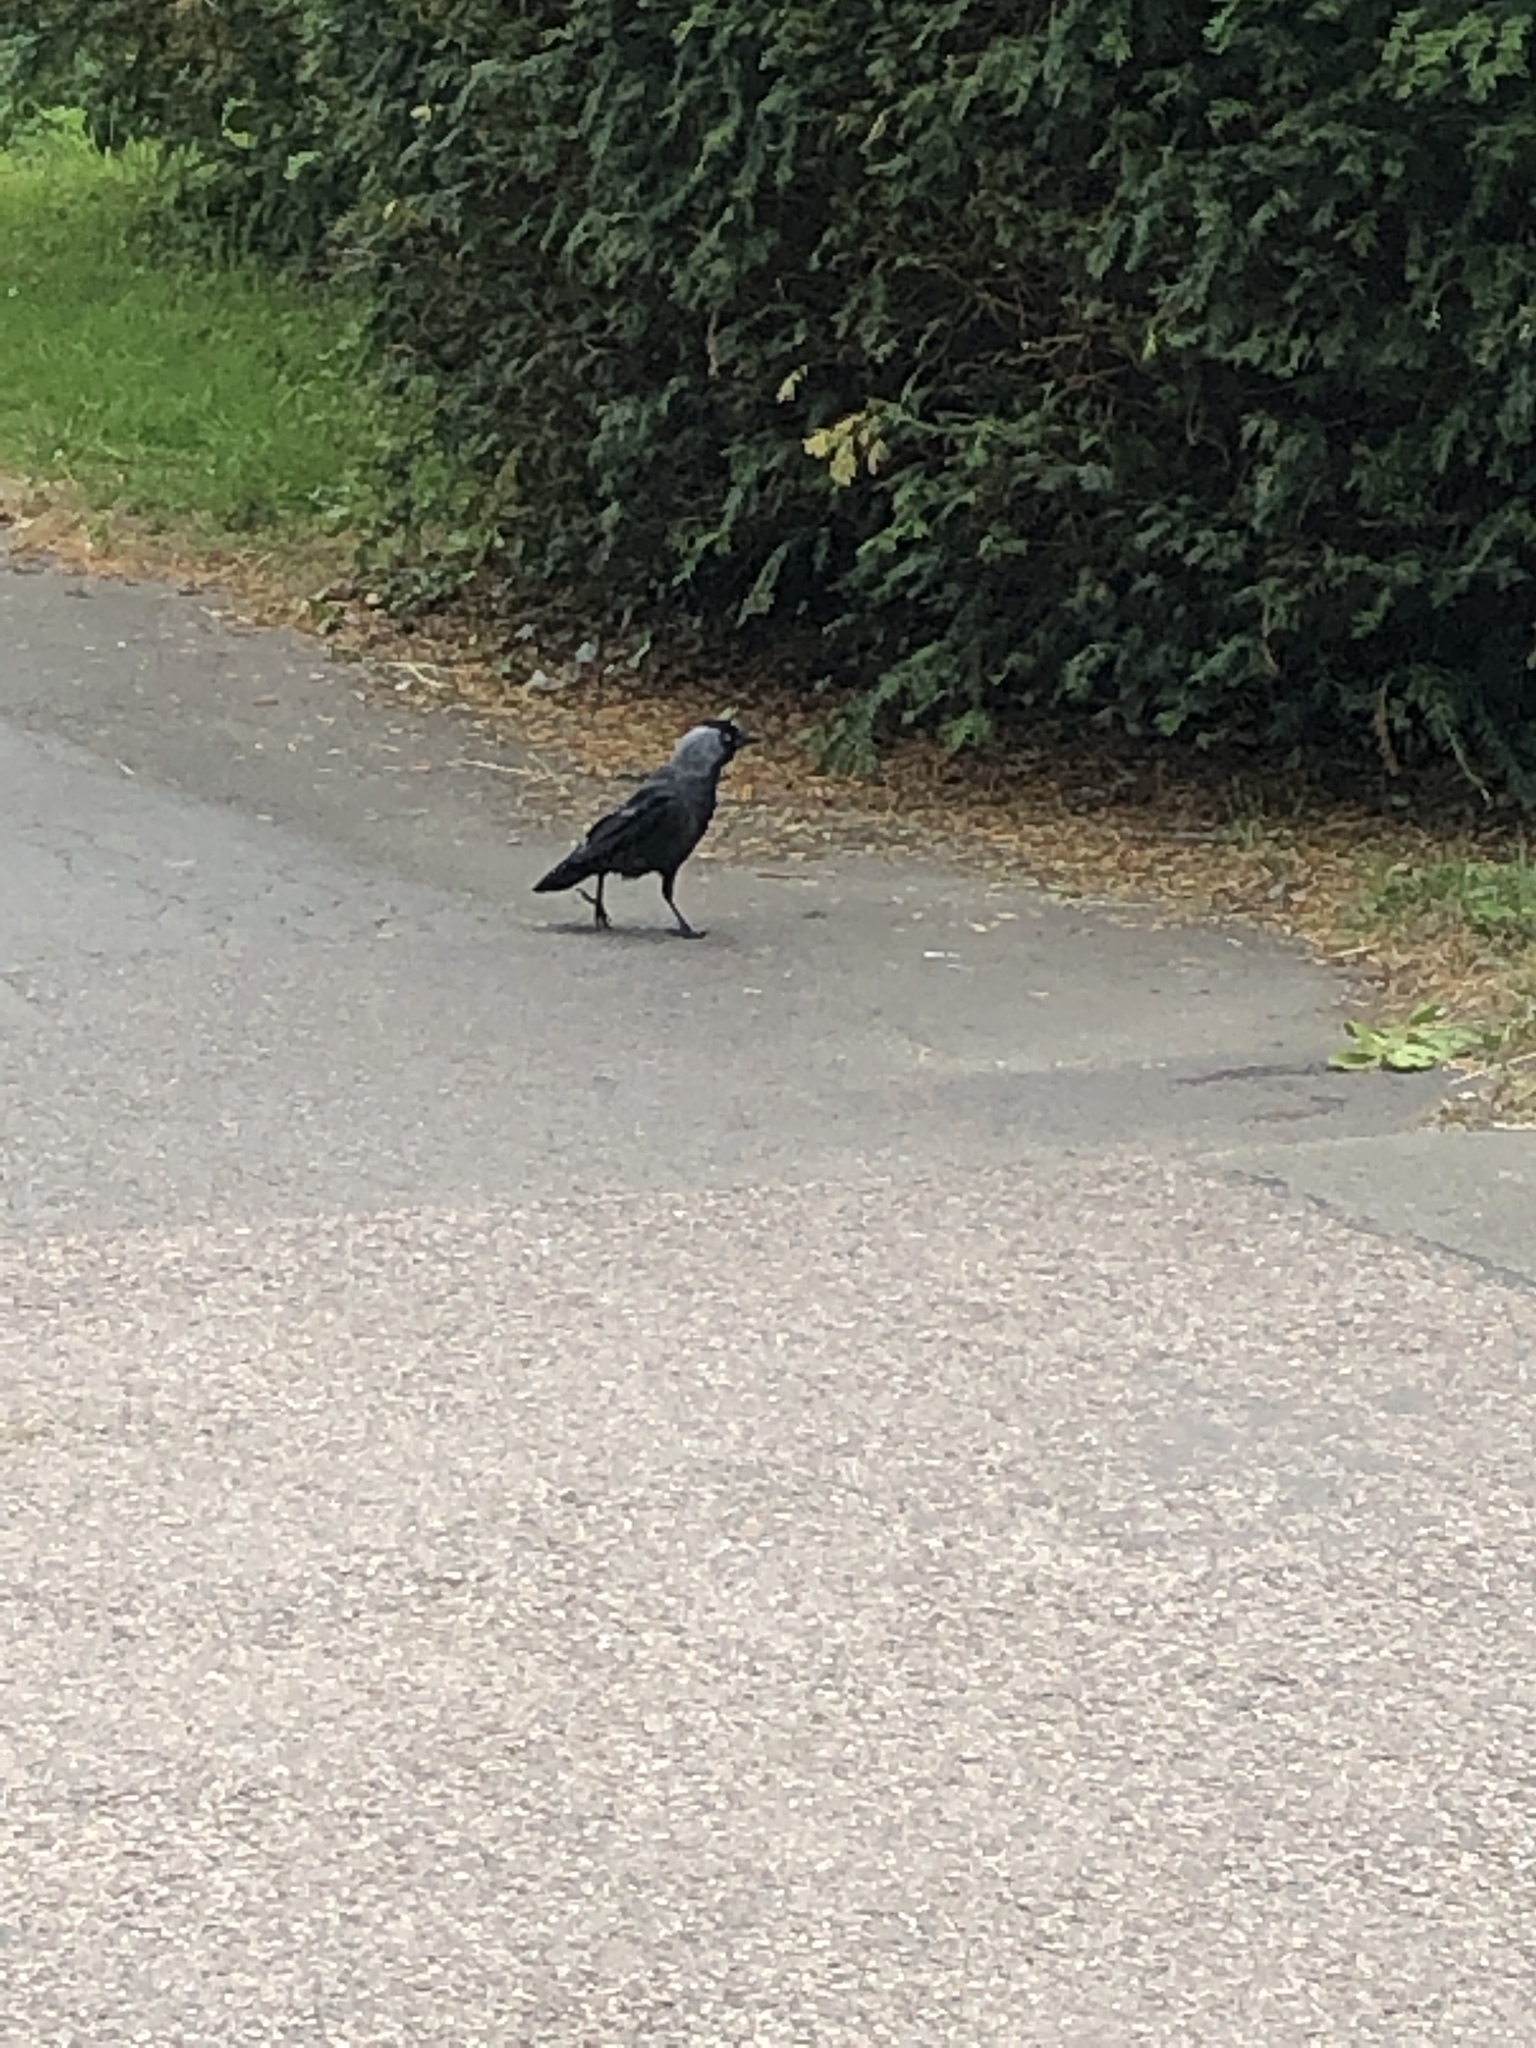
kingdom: Animalia
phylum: Chordata
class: Aves
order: Passeriformes
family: Corvidae
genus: Coloeus
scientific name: Coloeus monedula
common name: Western jackdaw
